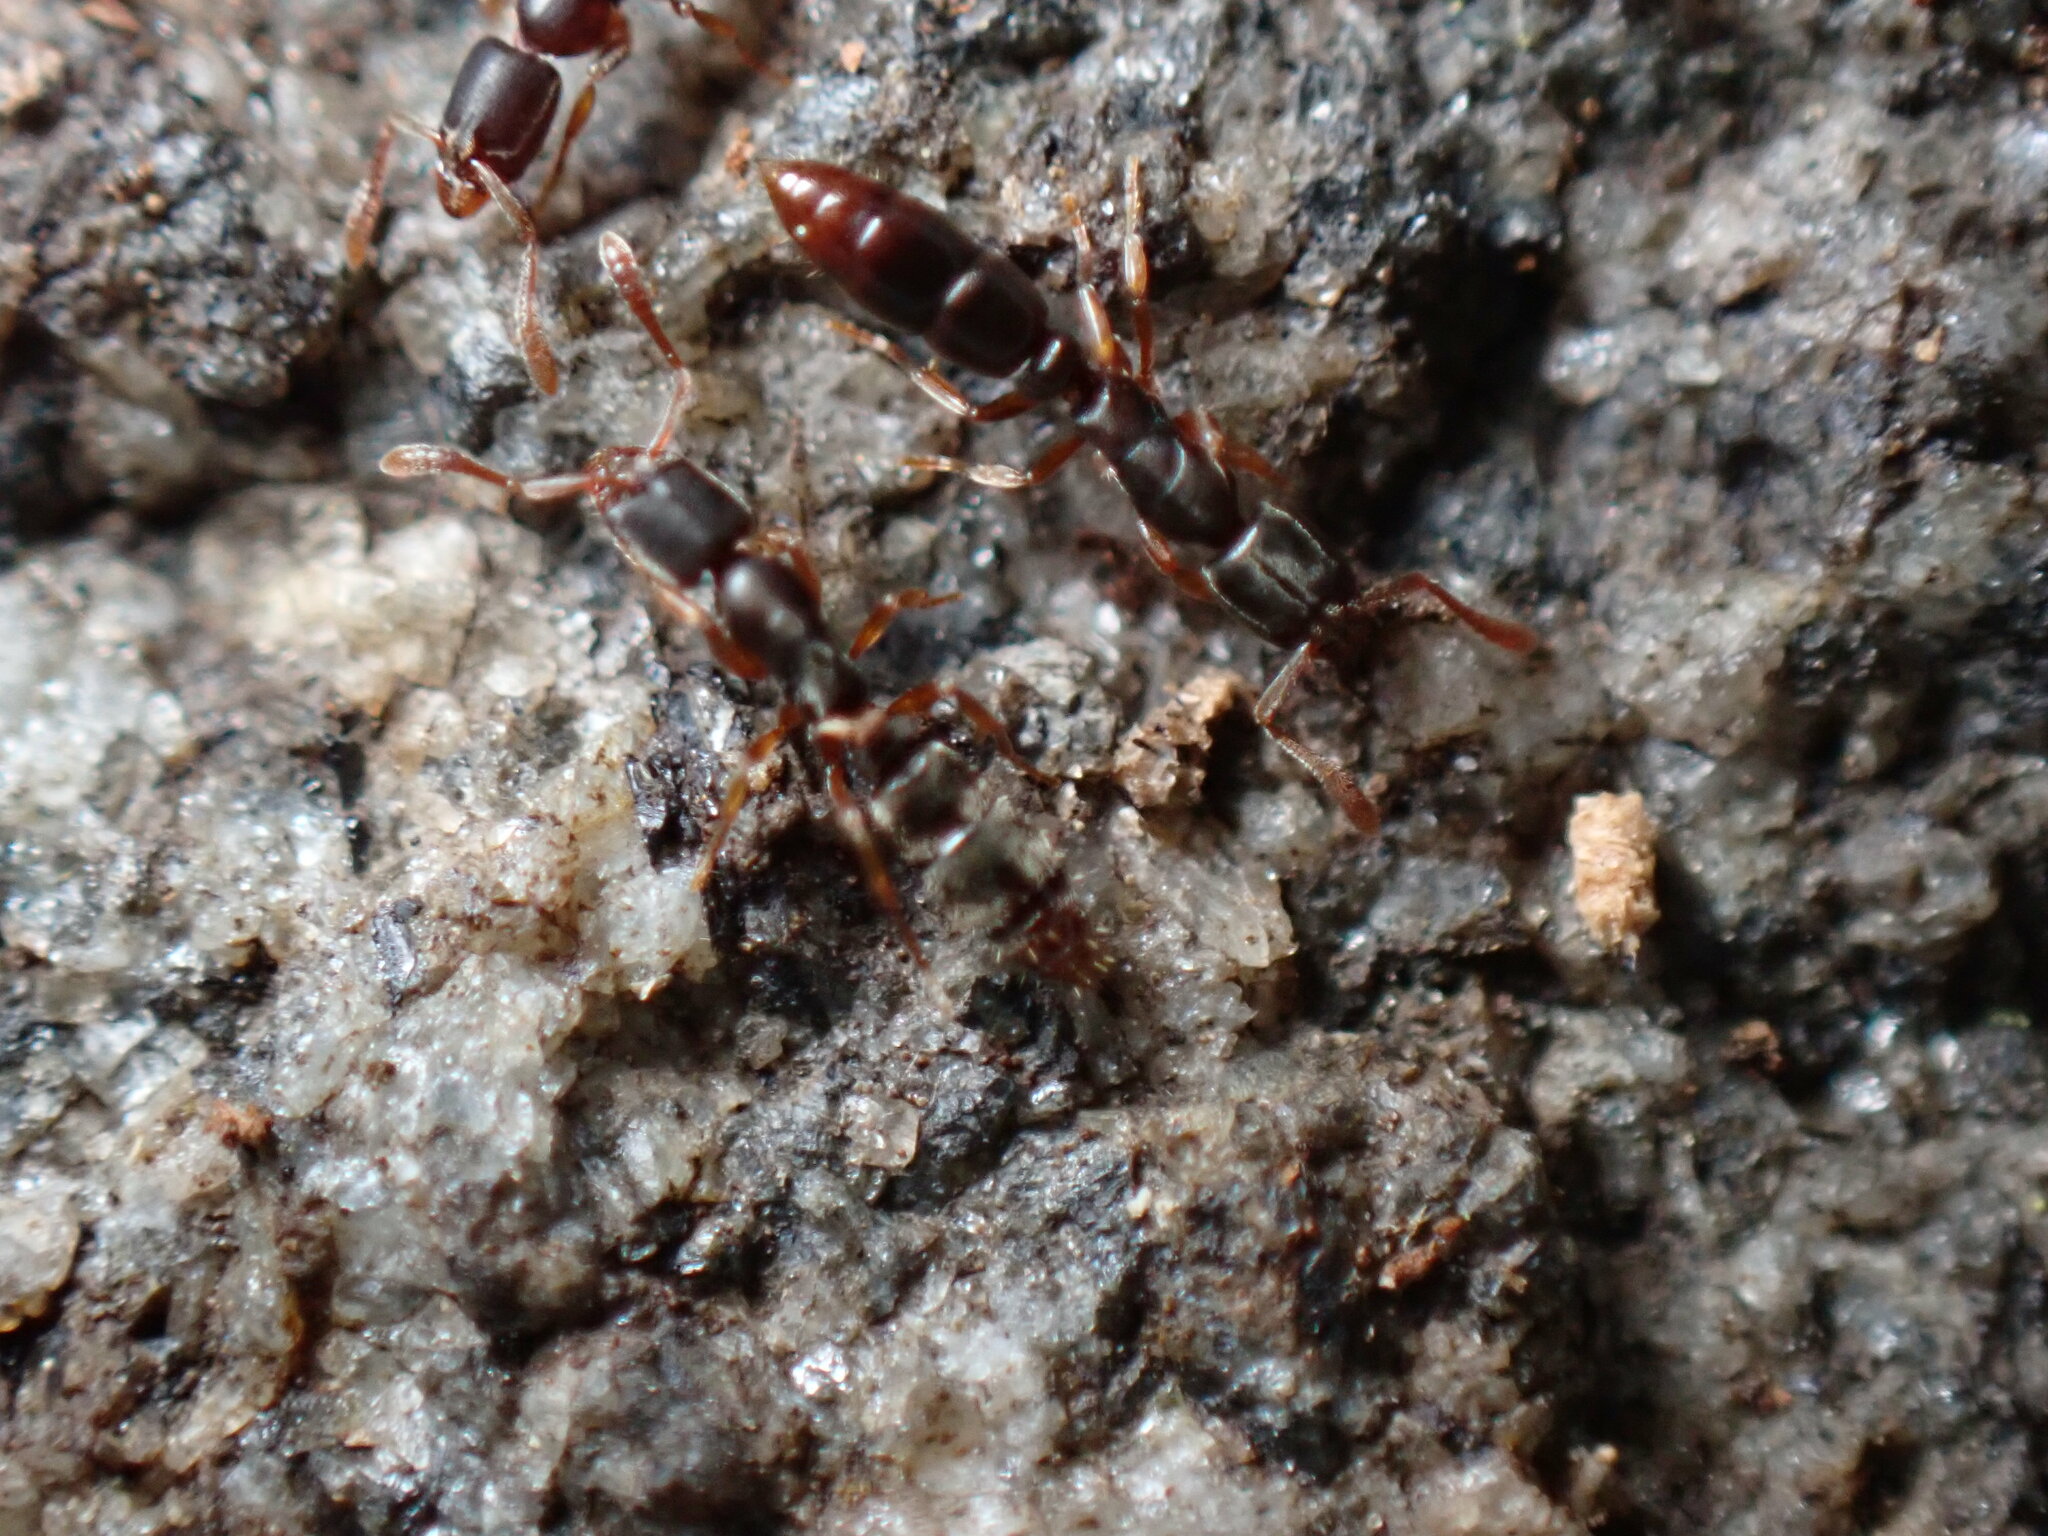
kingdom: Animalia
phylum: Arthropoda
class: Insecta
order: Hymenoptera
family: Formicidae
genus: Ponera
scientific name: Ponera pennsylvanica
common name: Pennsylvania ponera
